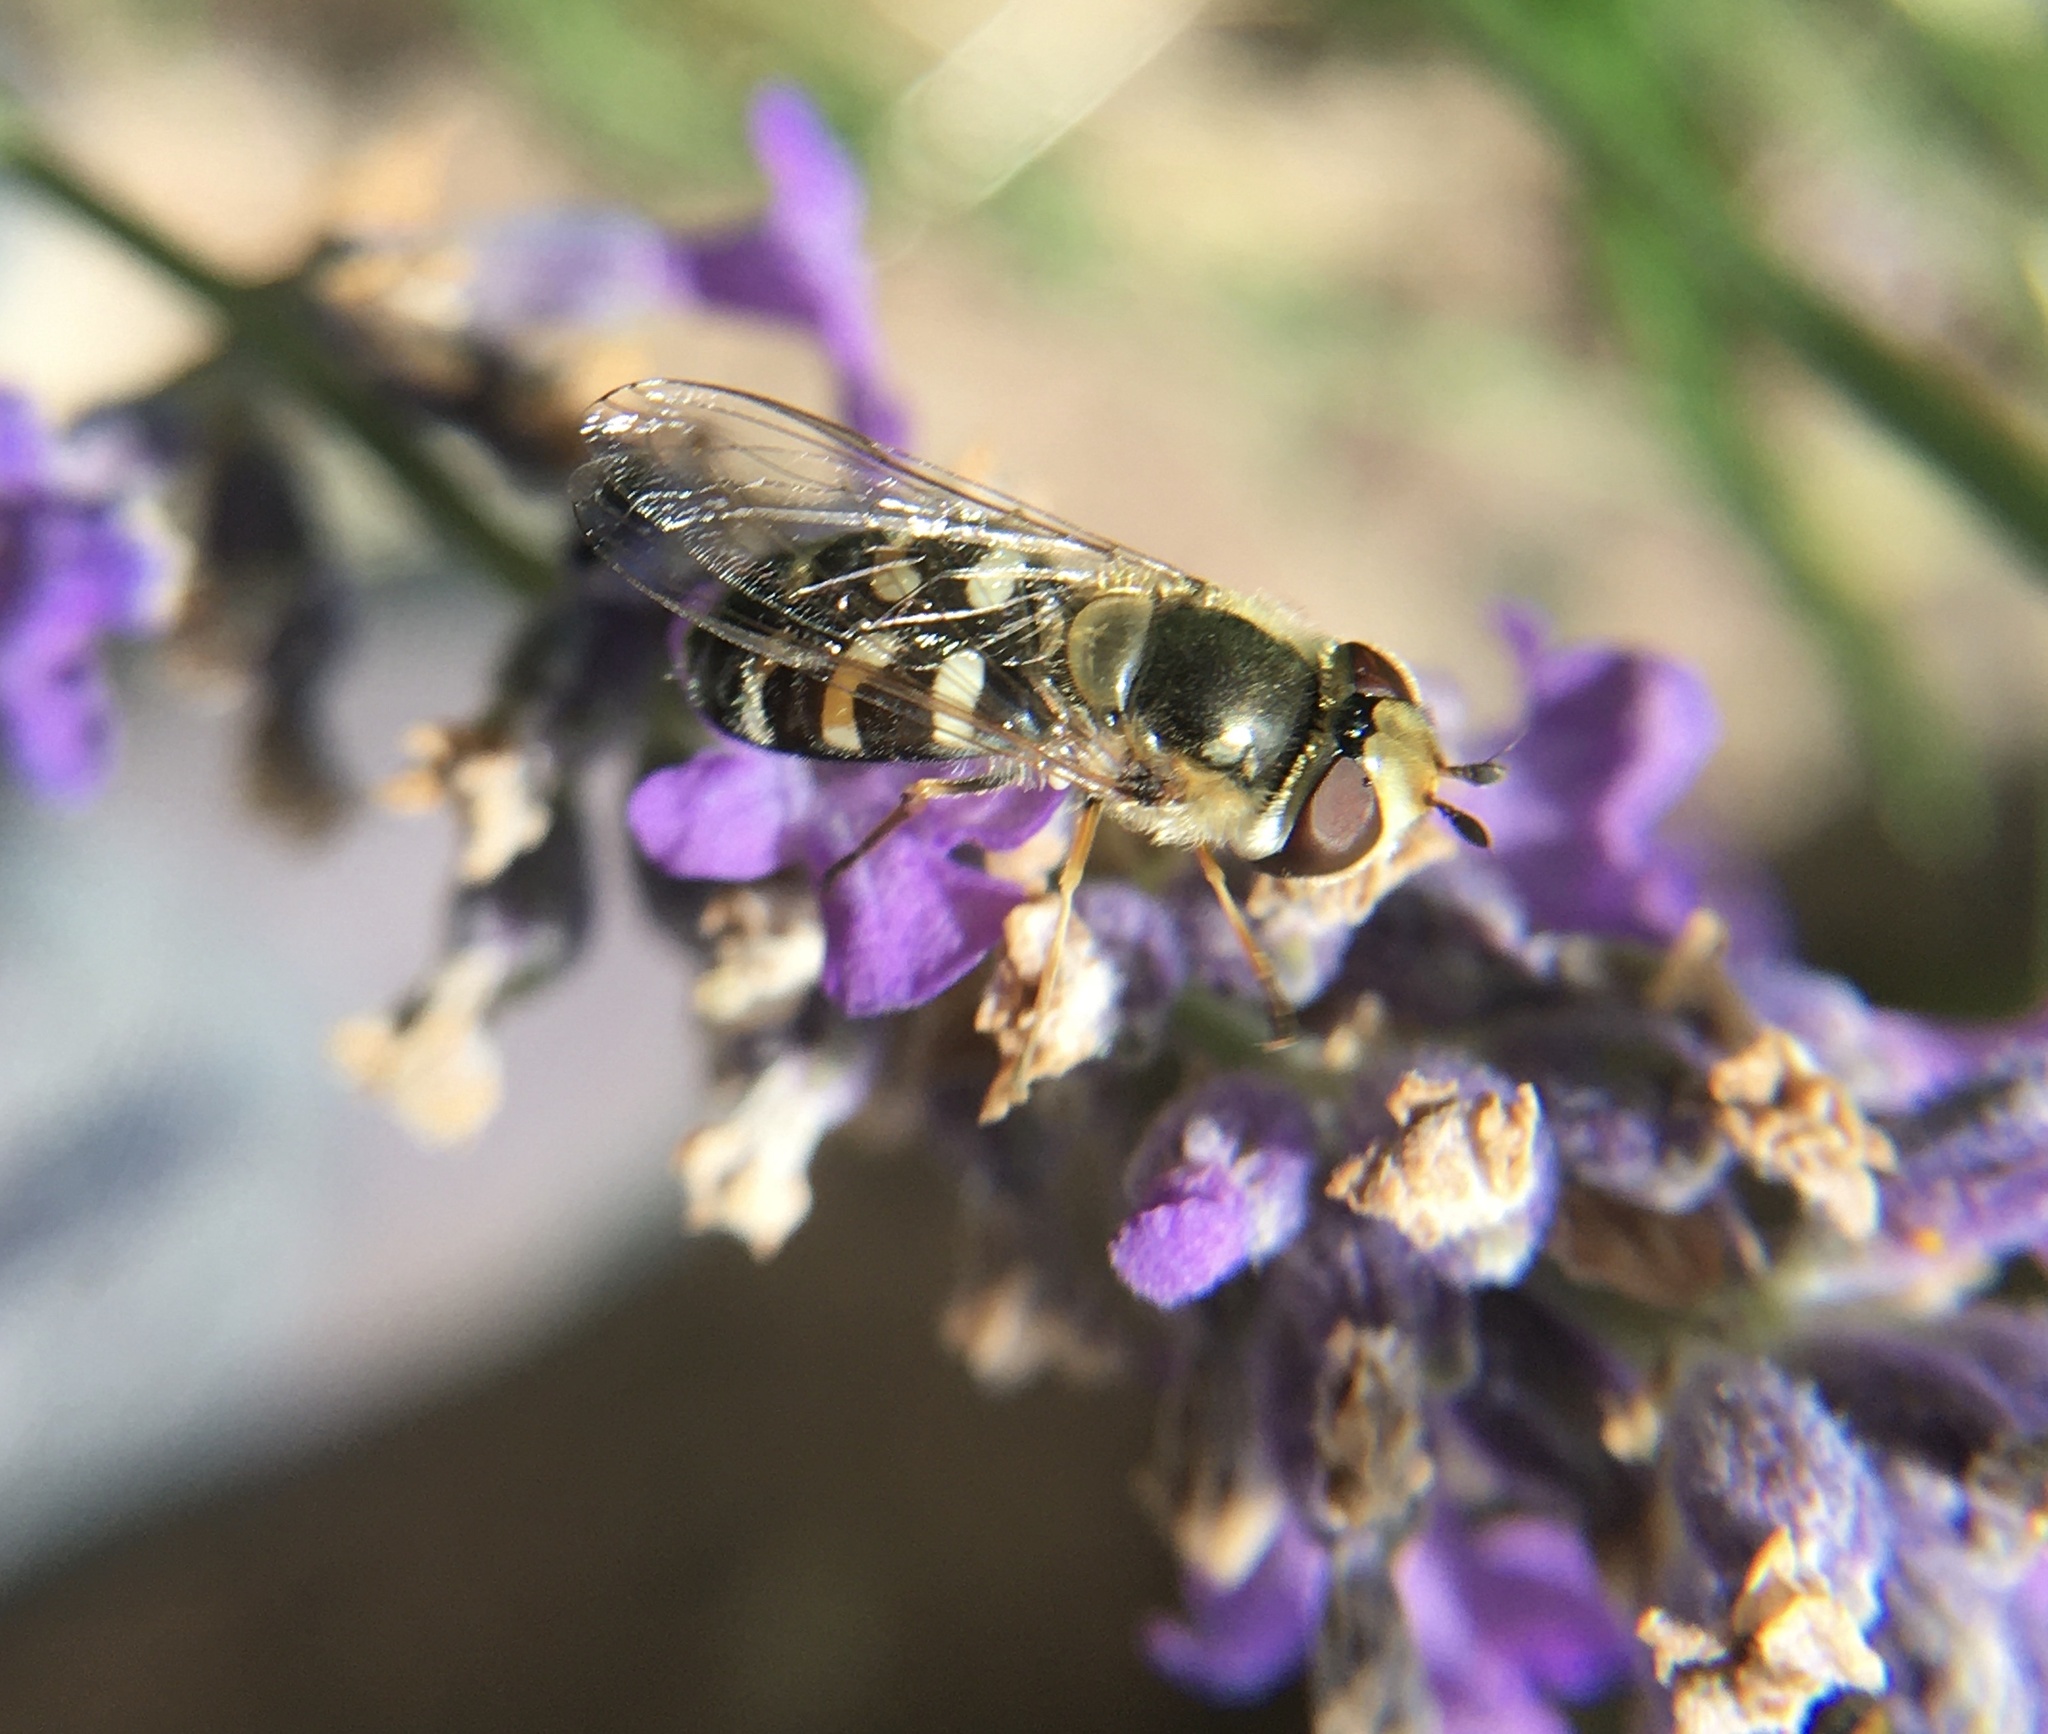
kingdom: Animalia
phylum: Arthropoda
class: Insecta
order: Diptera
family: Syrphidae
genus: Scaeva
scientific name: Scaeva pyrastri
